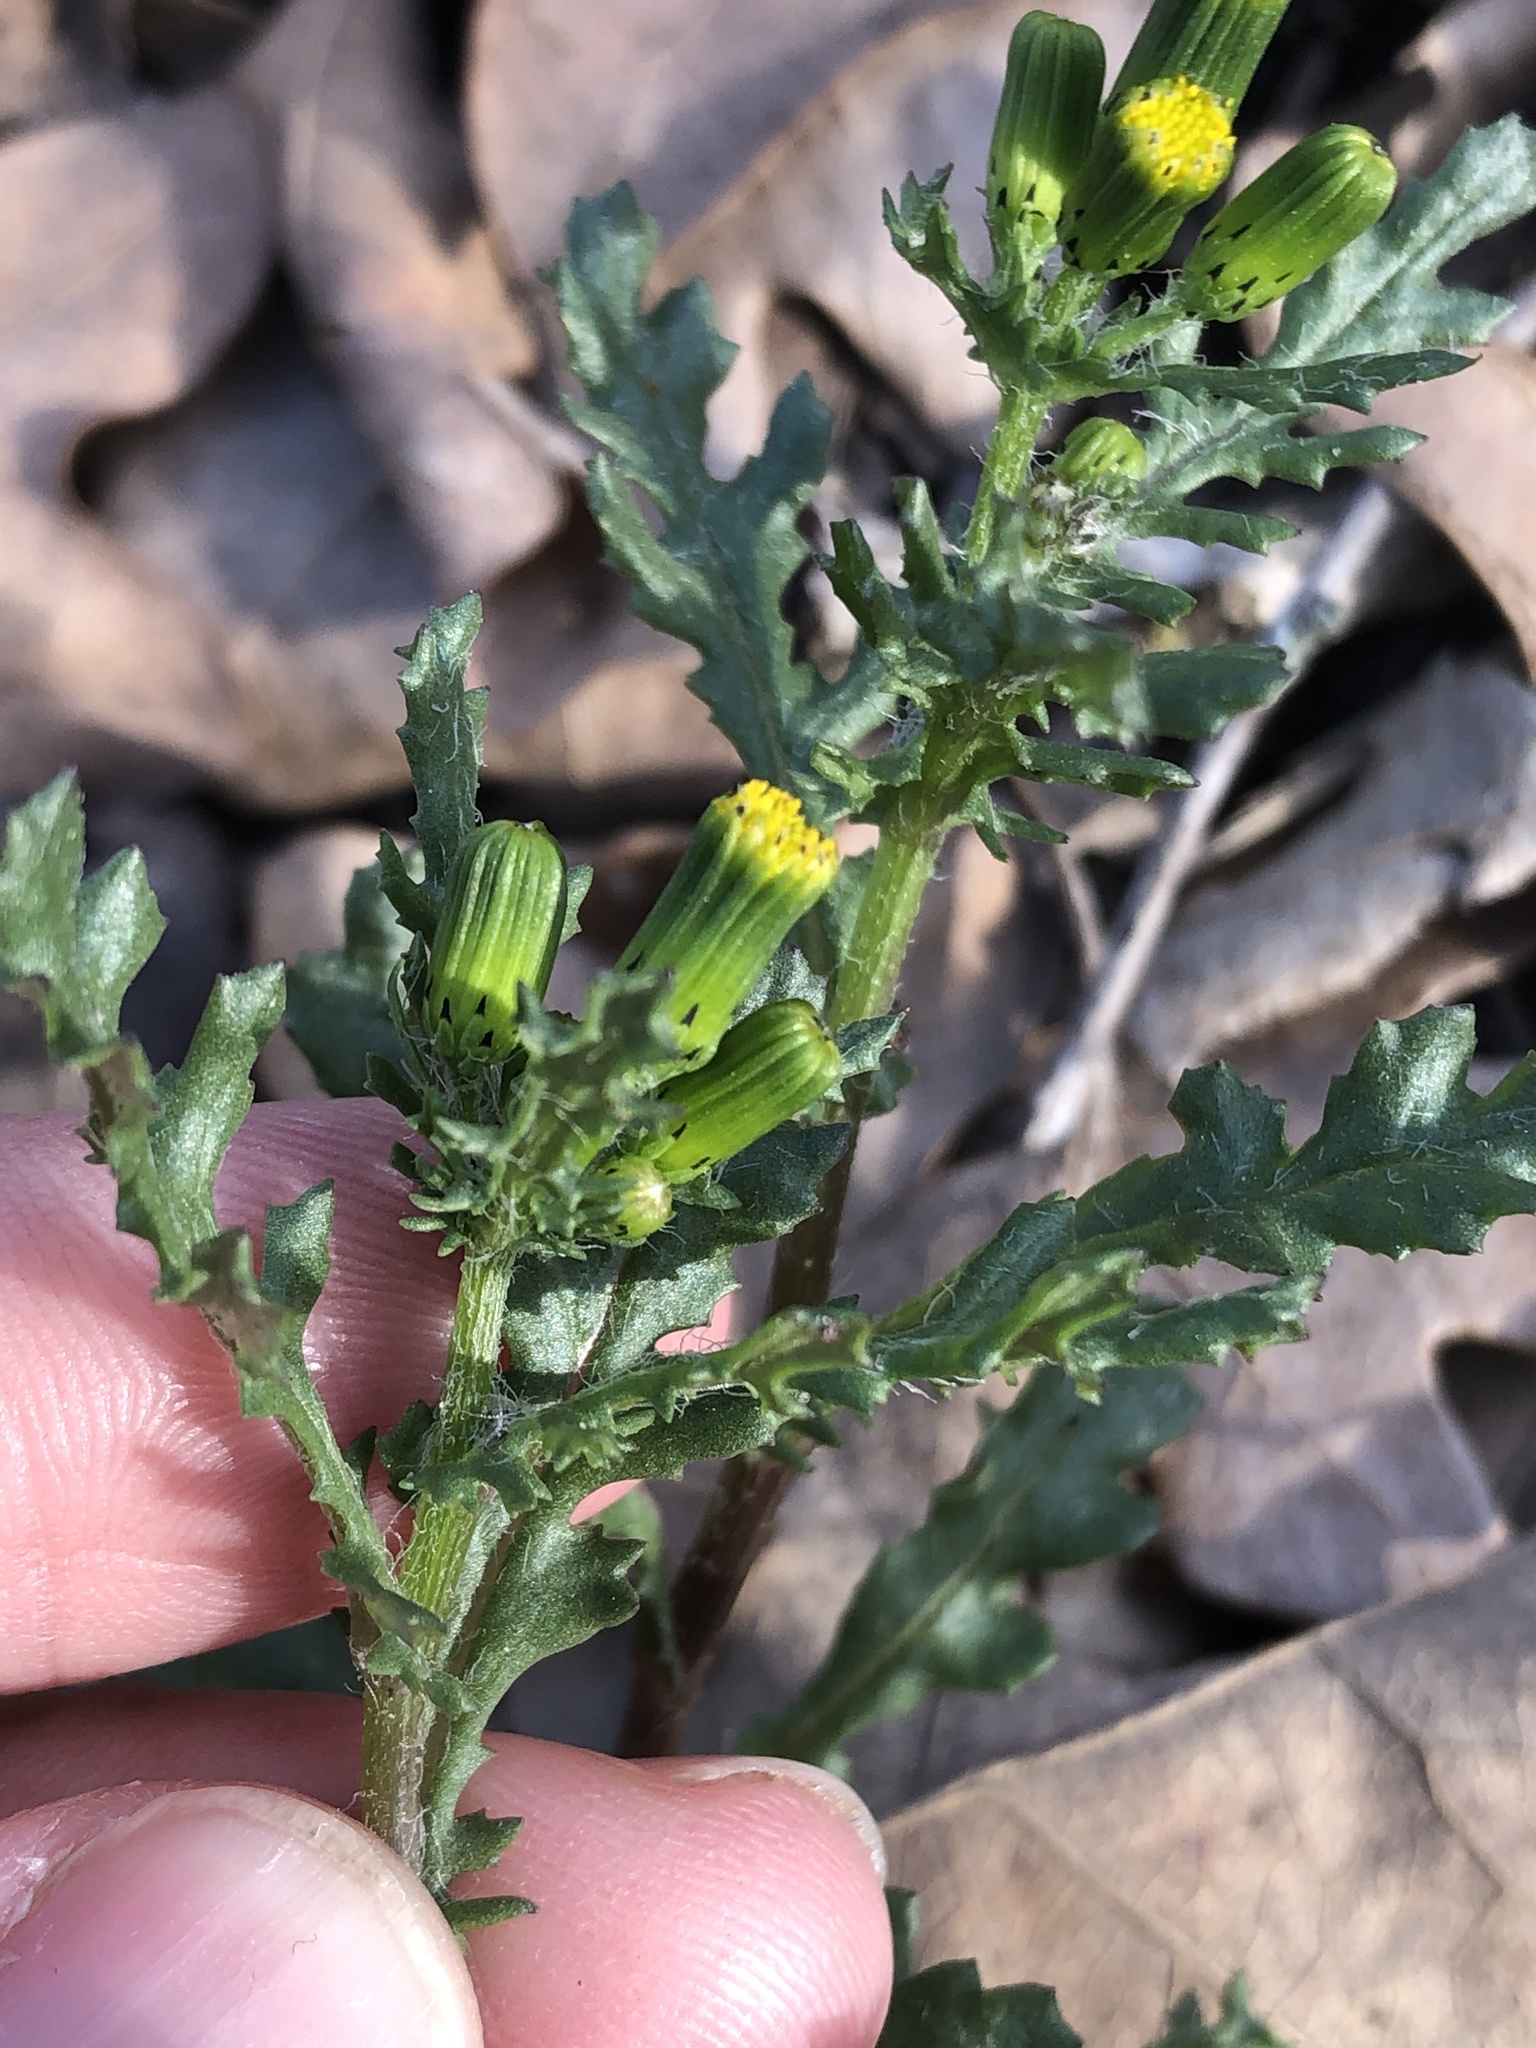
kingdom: Plantae
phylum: Tracheophyta
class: Magnoliopsida
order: Asterales
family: Asteraceae
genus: Senecio
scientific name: Senecio vulgaris
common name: Old-man-in-the-spring
